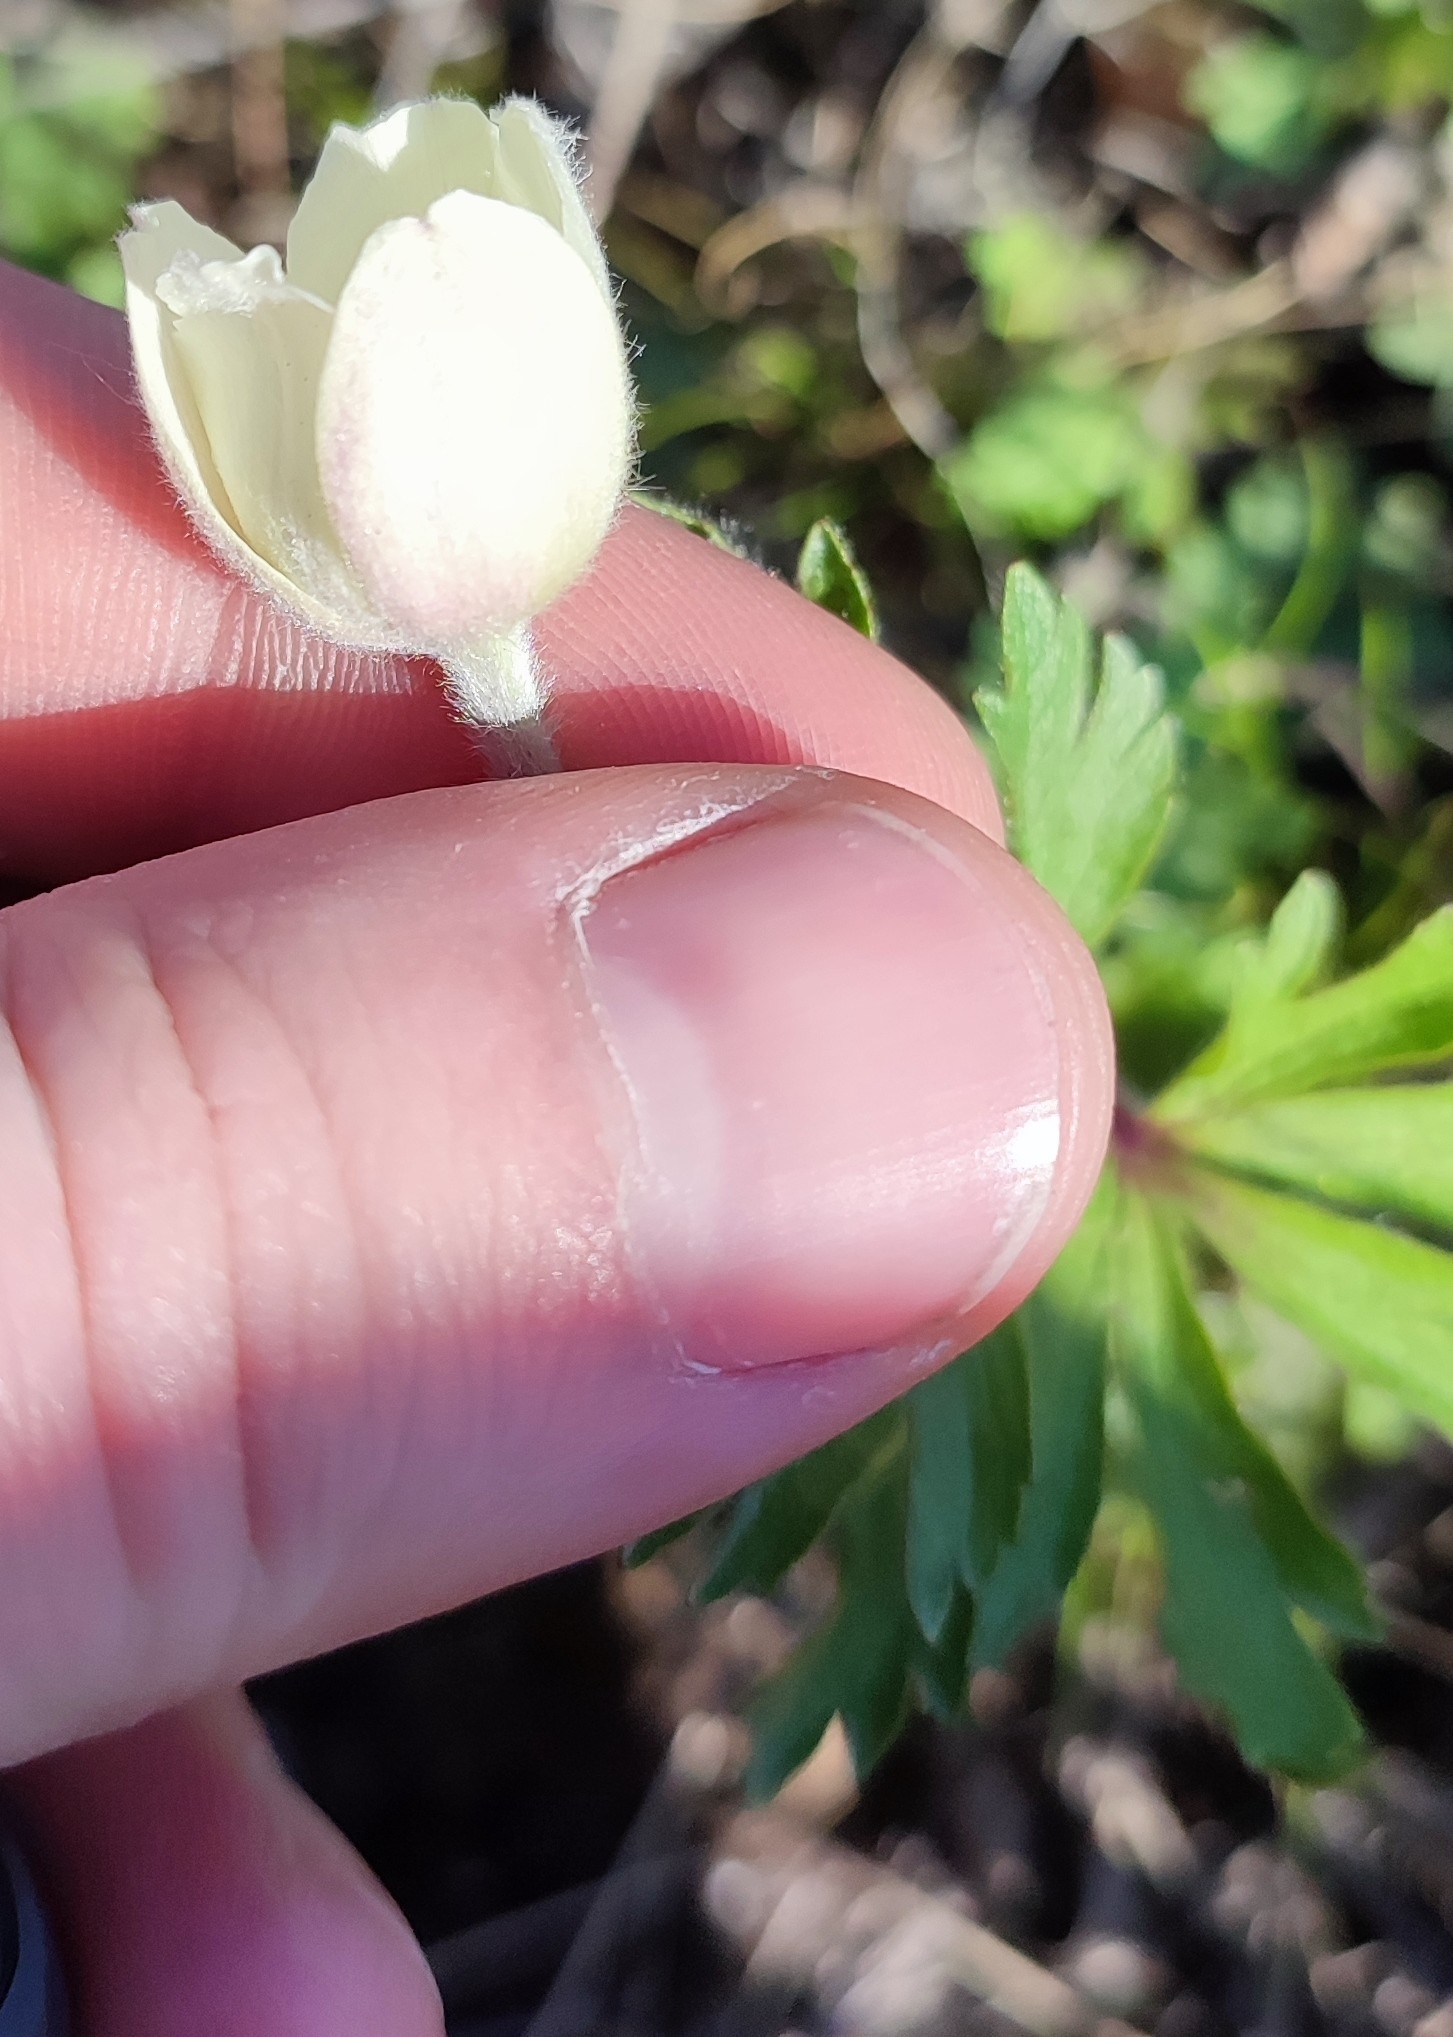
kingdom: Plantae
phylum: Tracheophyta
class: Magnoliopsida
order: Ranunculales
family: Ranunculaceae
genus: Anemone
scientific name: Anemone sylvestris
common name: Snowdrop anemone
